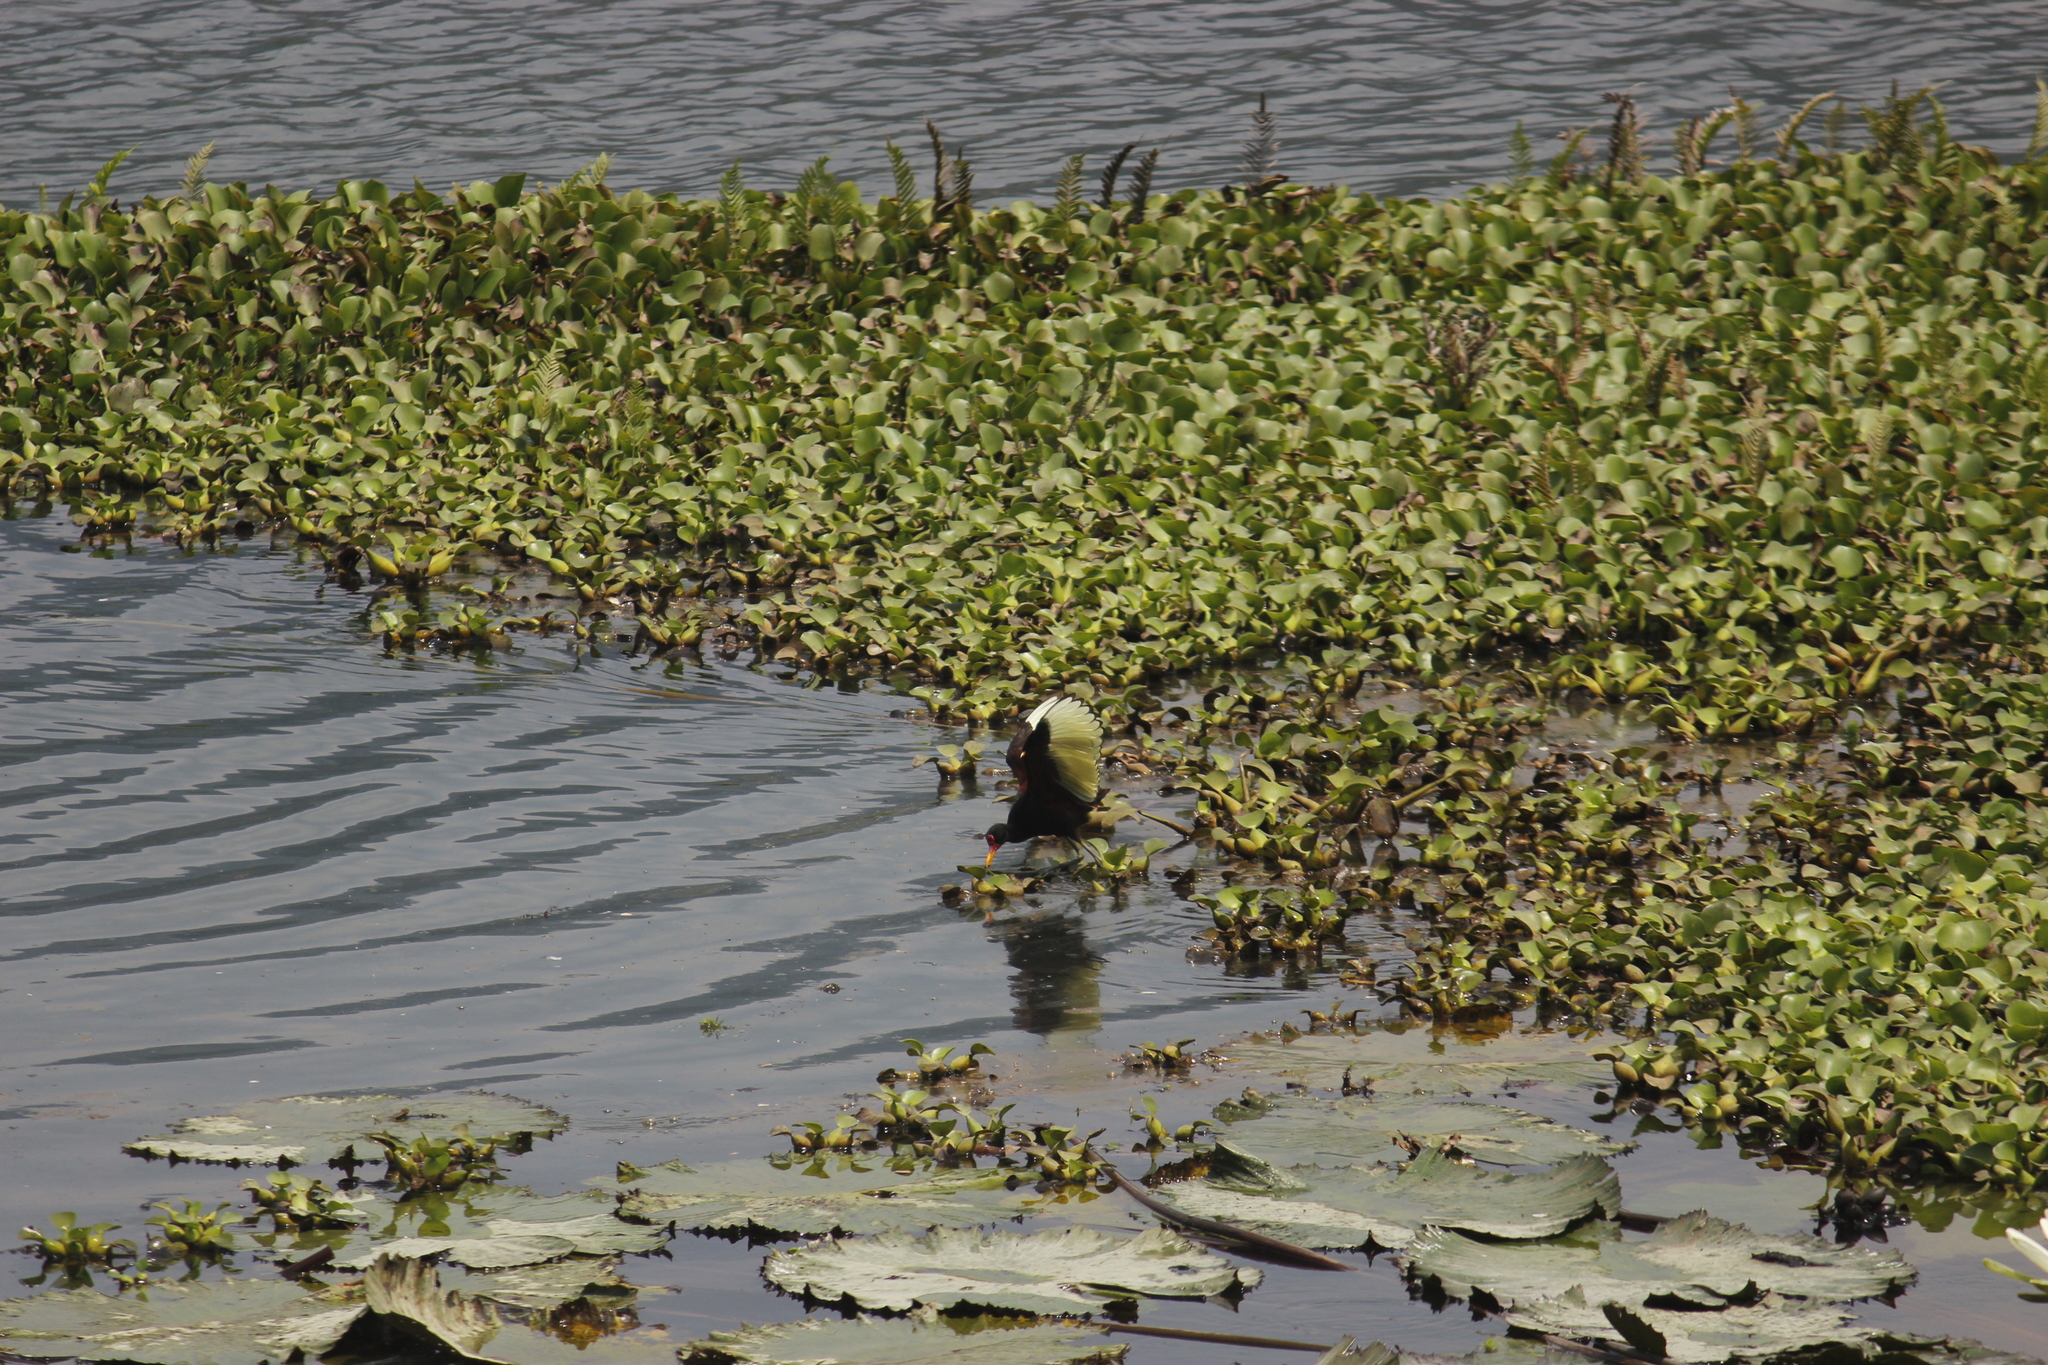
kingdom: Animalia
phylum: Chordata
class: Aves
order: Charadriiformes
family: Jacanidae
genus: Jacana
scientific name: Jacana jacana
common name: Wattled jacana
